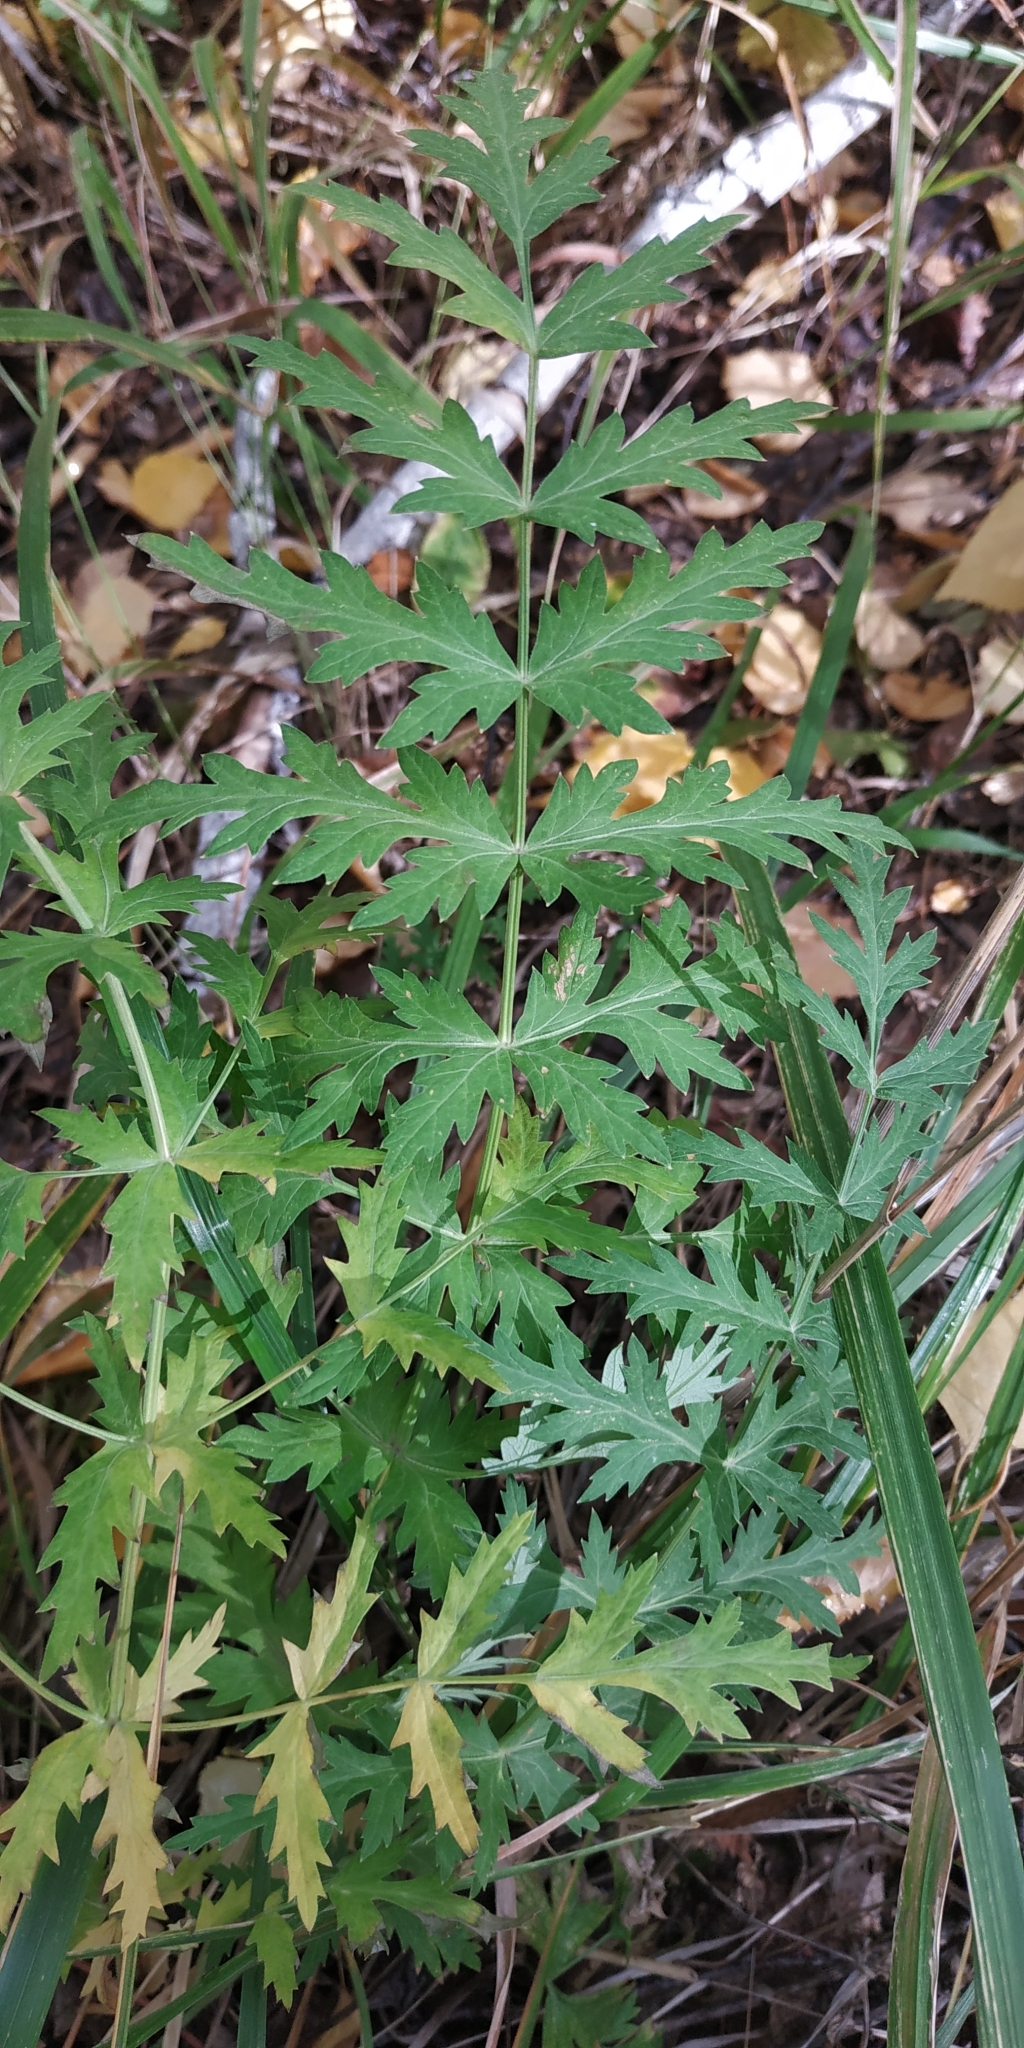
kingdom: Plantae
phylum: Tracheophyta
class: Magnoliopsida
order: Apiales
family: Apiaceae
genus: Seseli
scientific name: Seseli libanotis
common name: Mooncarrot
